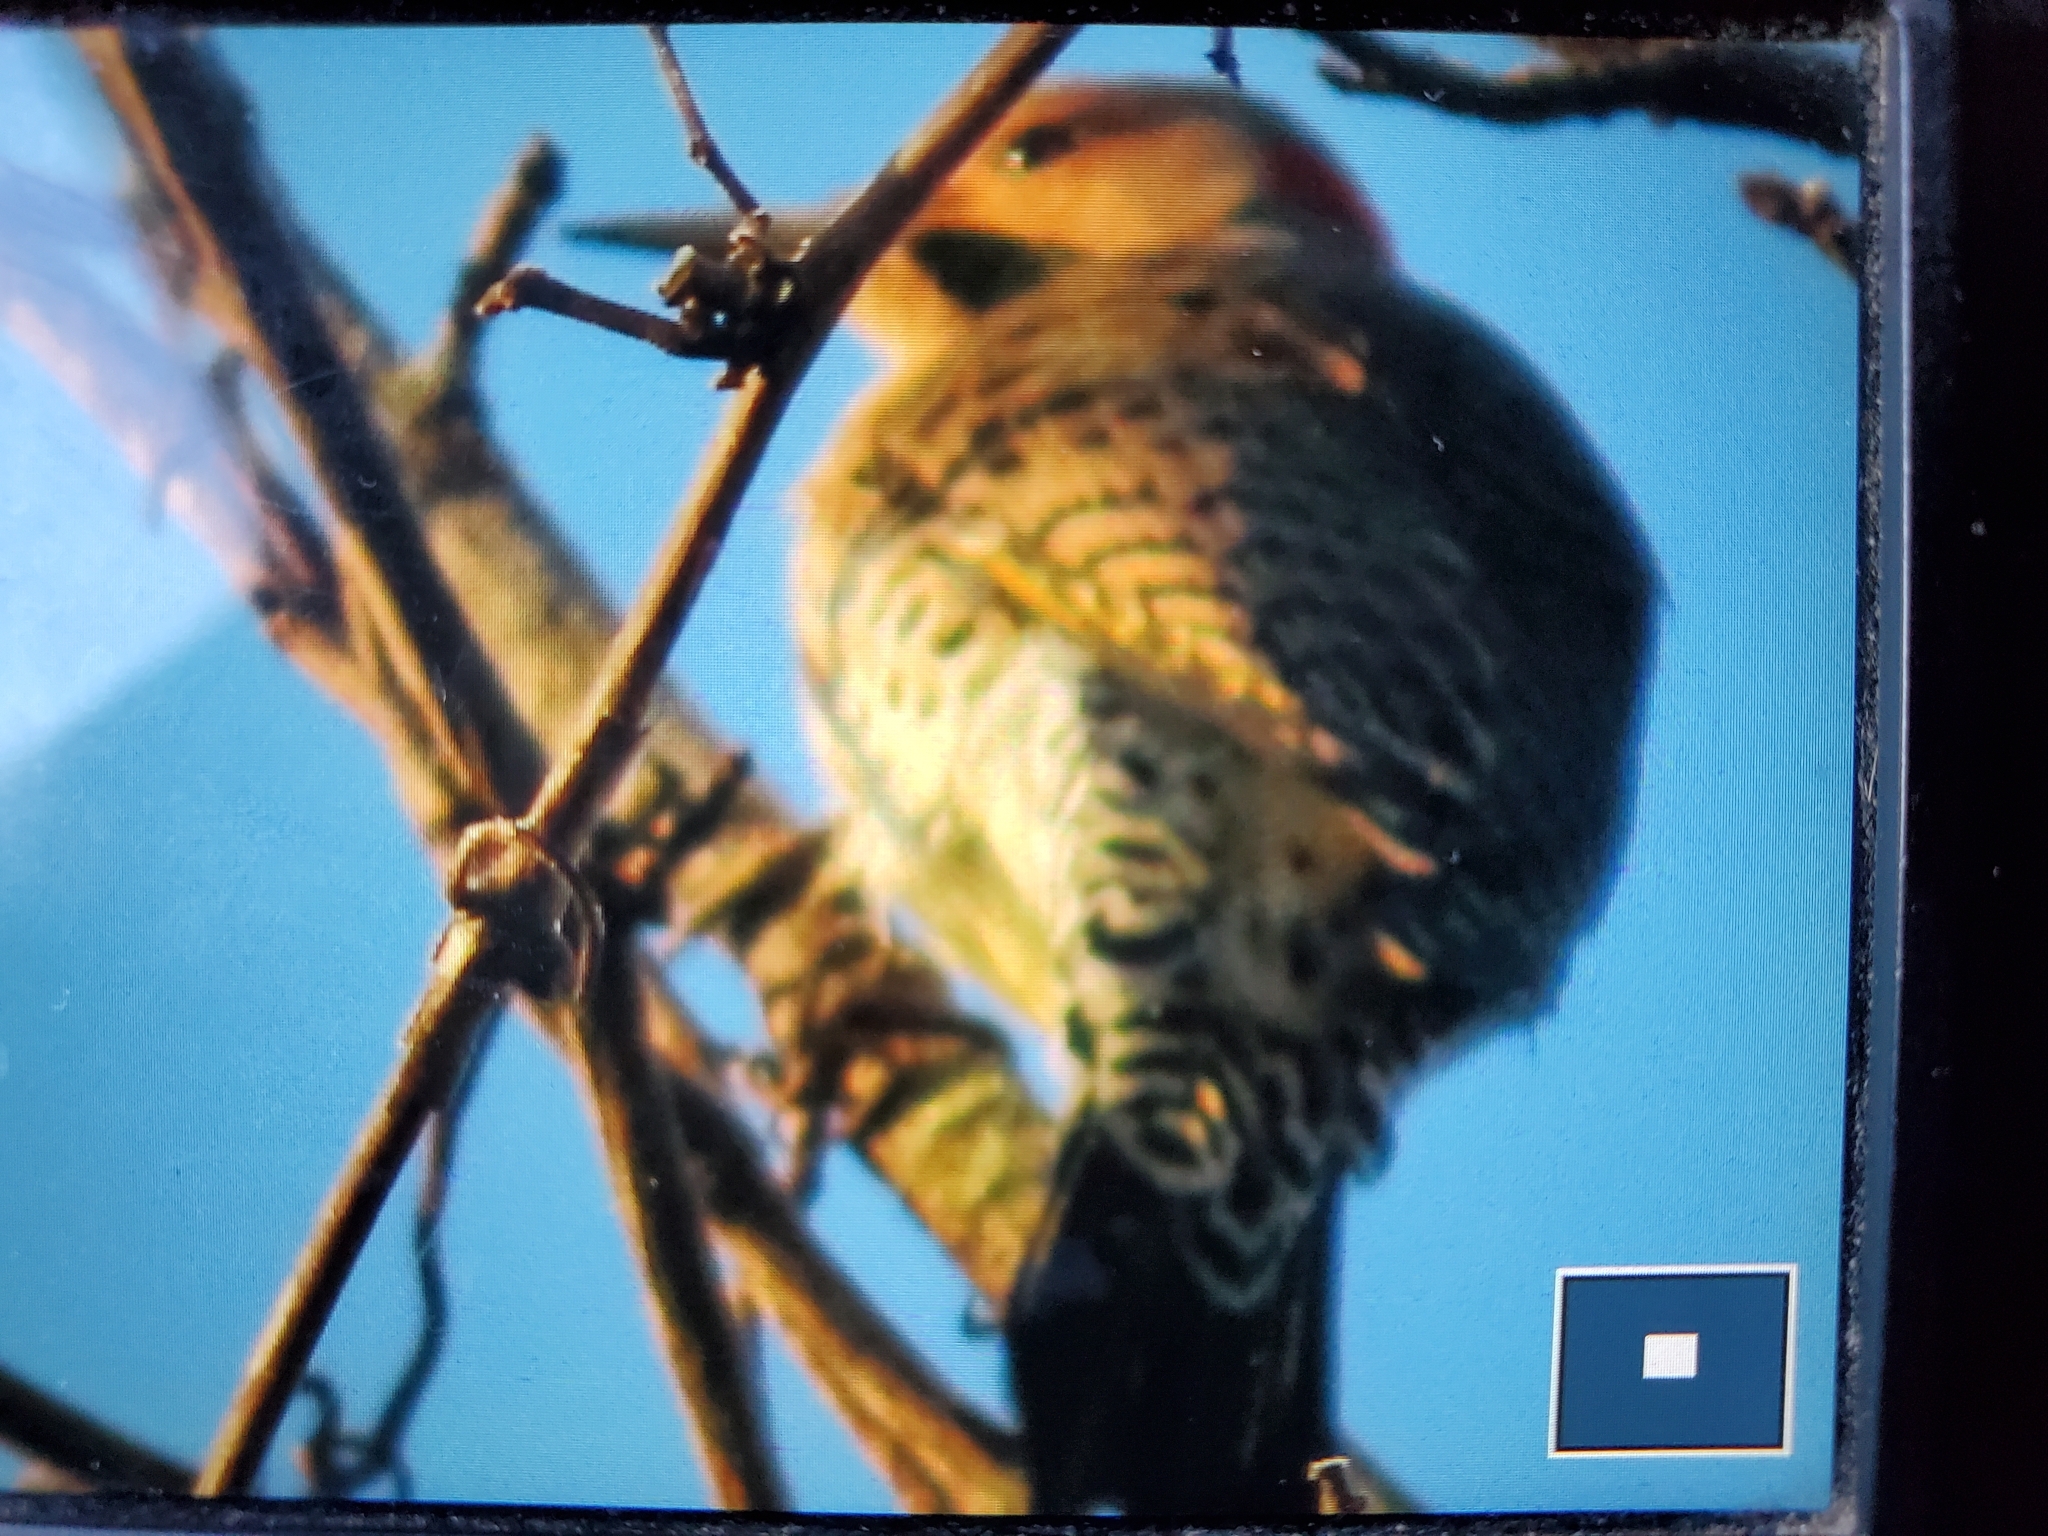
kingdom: Animalia
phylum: Chordata
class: Aves
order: Piciformes
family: Picidae
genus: Colaptes
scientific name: Colaptes auratus
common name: Northern flicker
